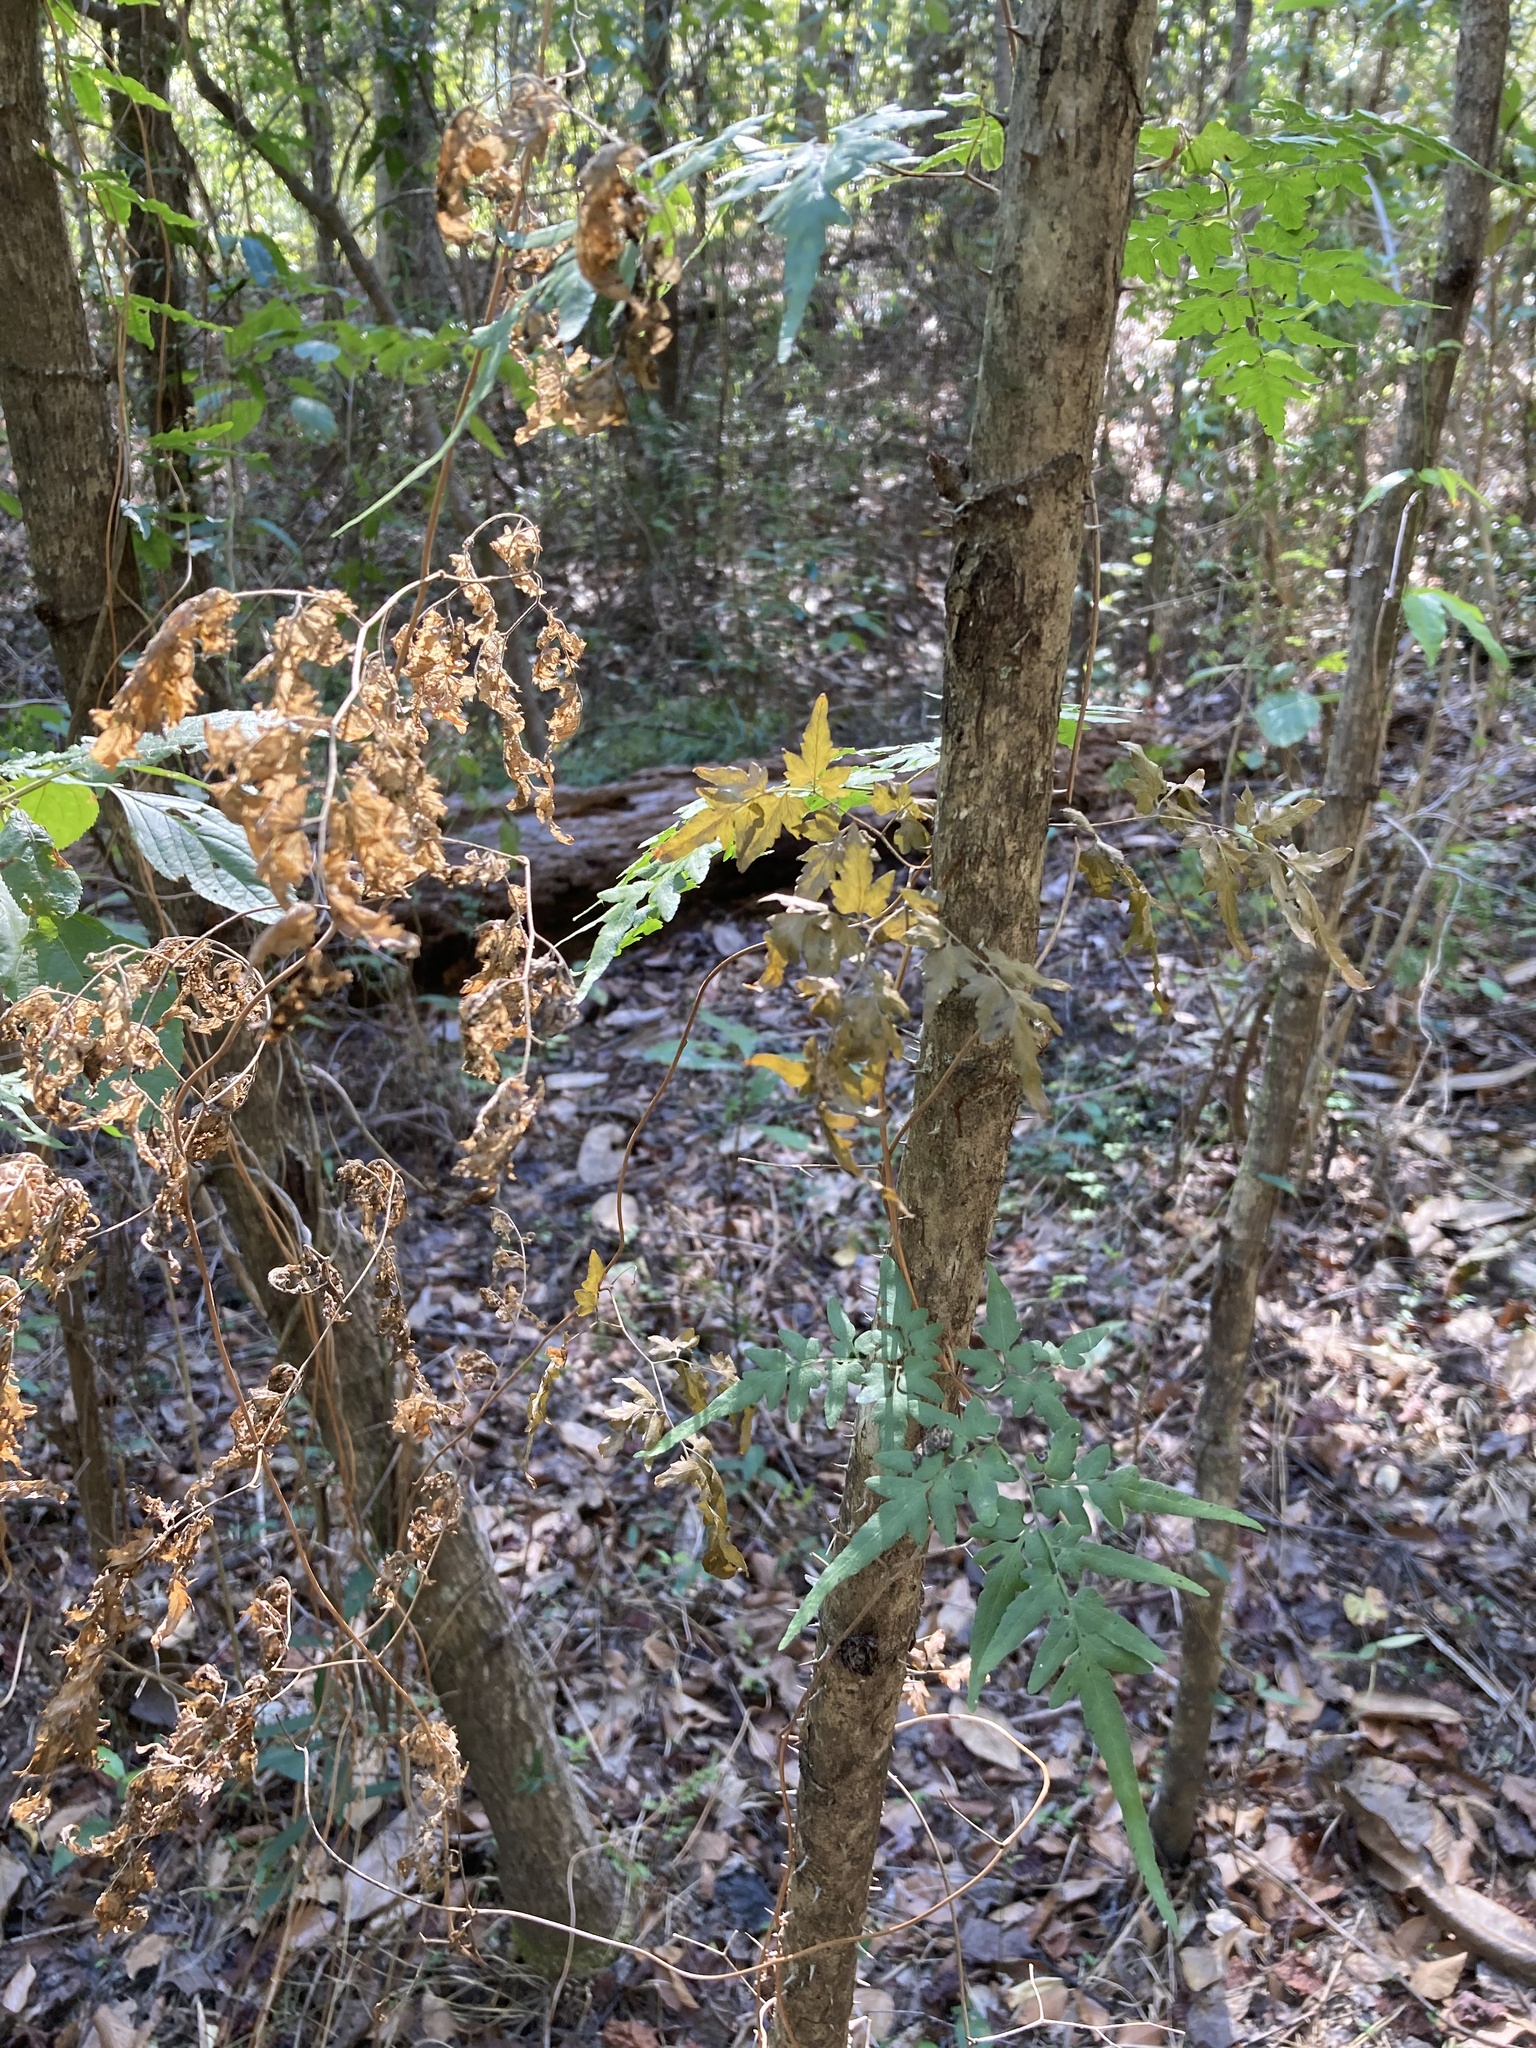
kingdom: Plantae
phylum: Tracheophyta
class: Polypodiopsida
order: Schizaeales
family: Lygodiaceae
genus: Lygodium
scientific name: Lygodium japonicum
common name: Japanese climbing fern
